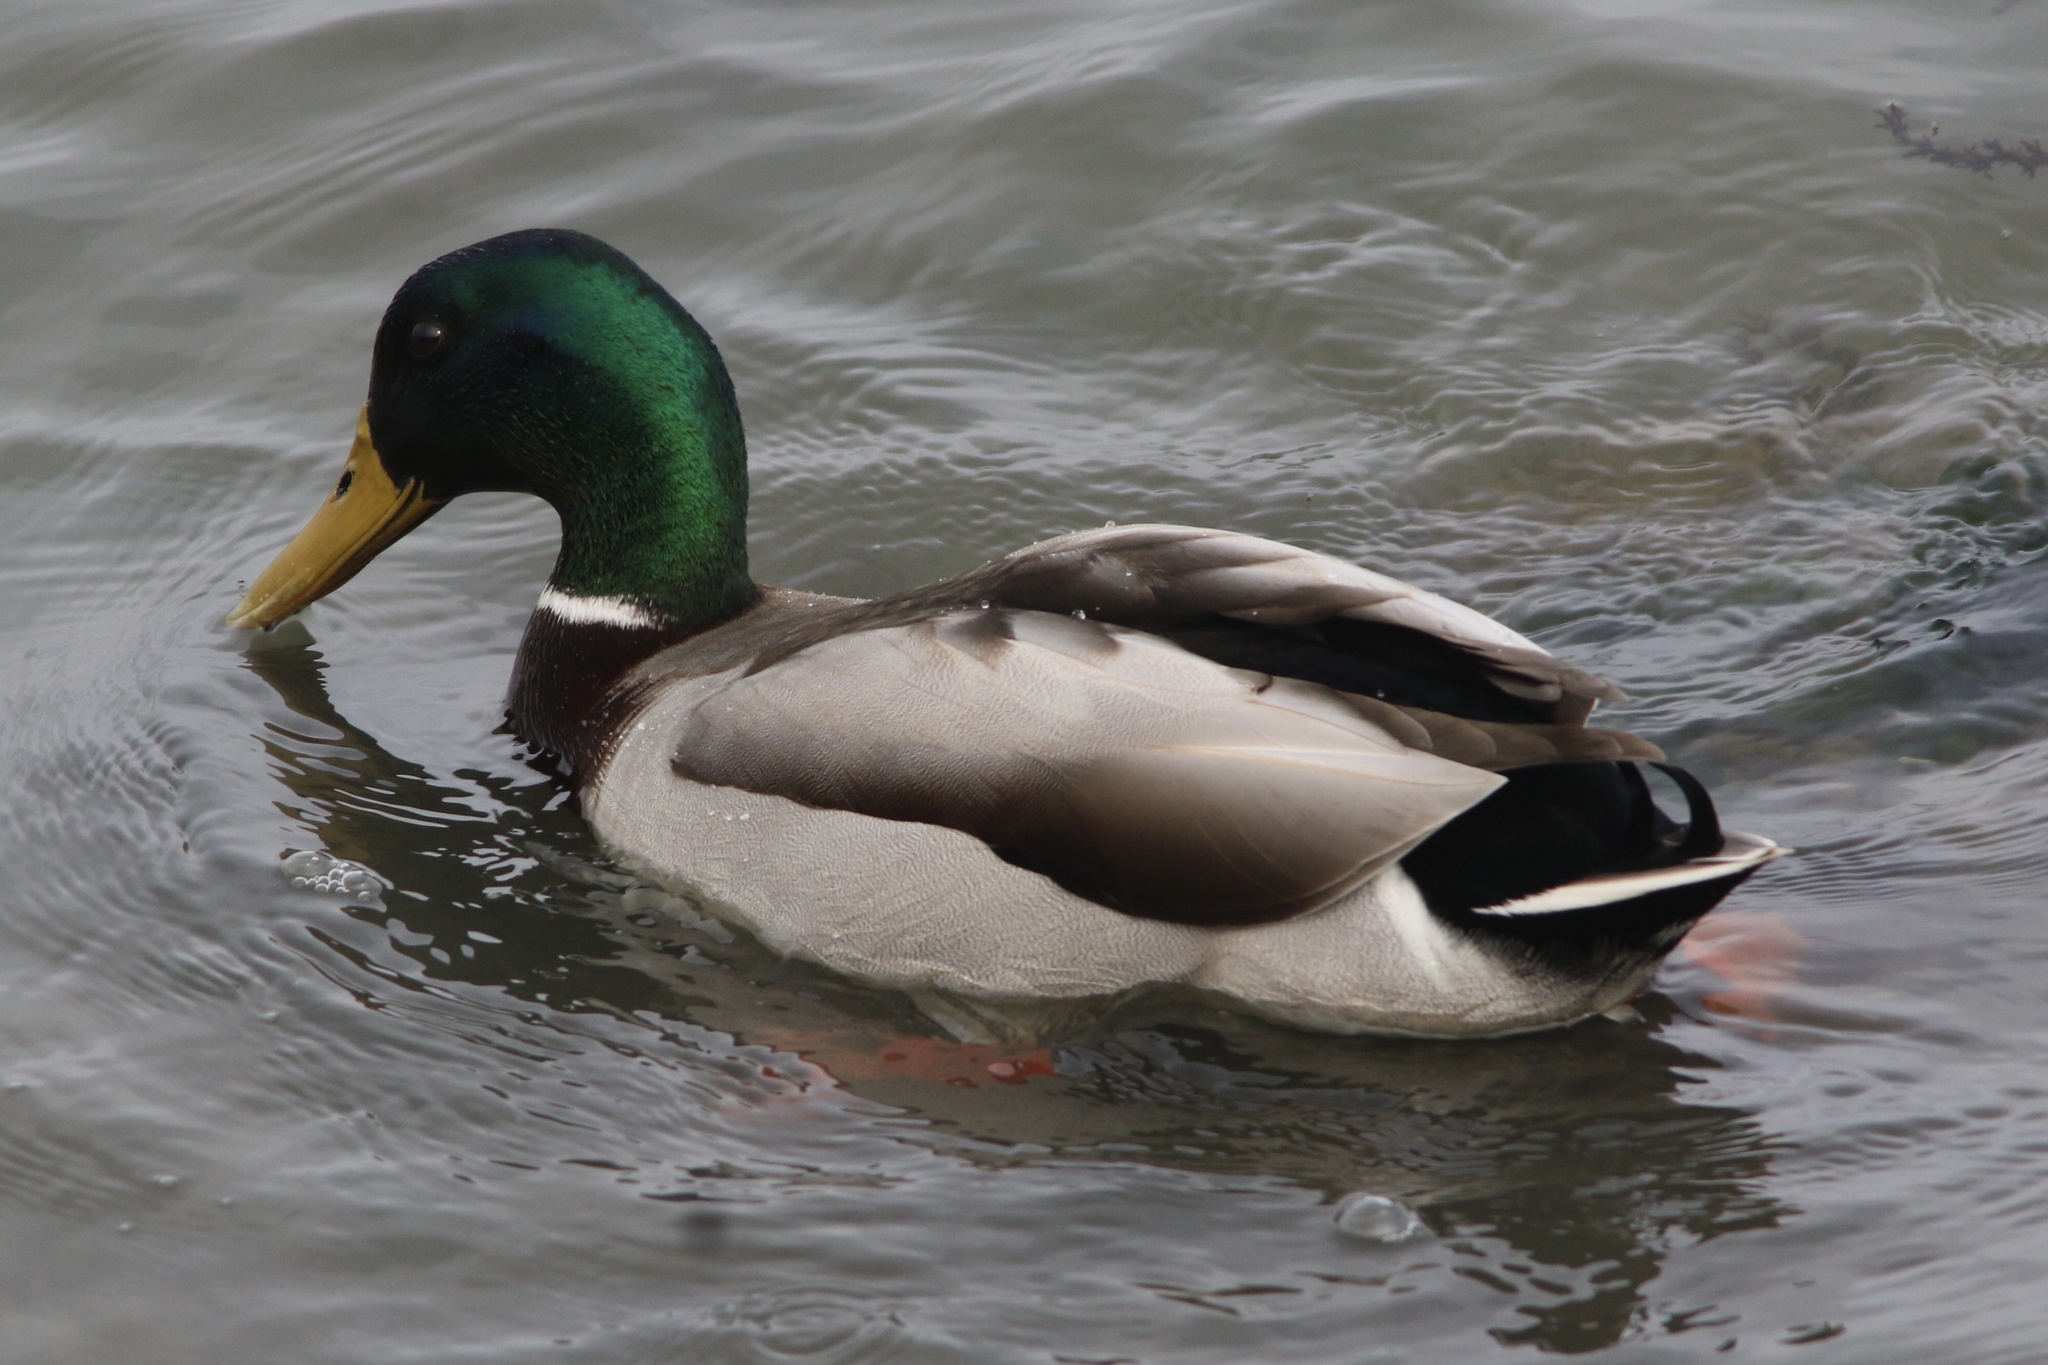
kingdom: Animalia
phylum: Chordata
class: Aves
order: Anseriformes
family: Anatidae
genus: Anas
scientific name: Anas platyrhynchos
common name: Mallard
